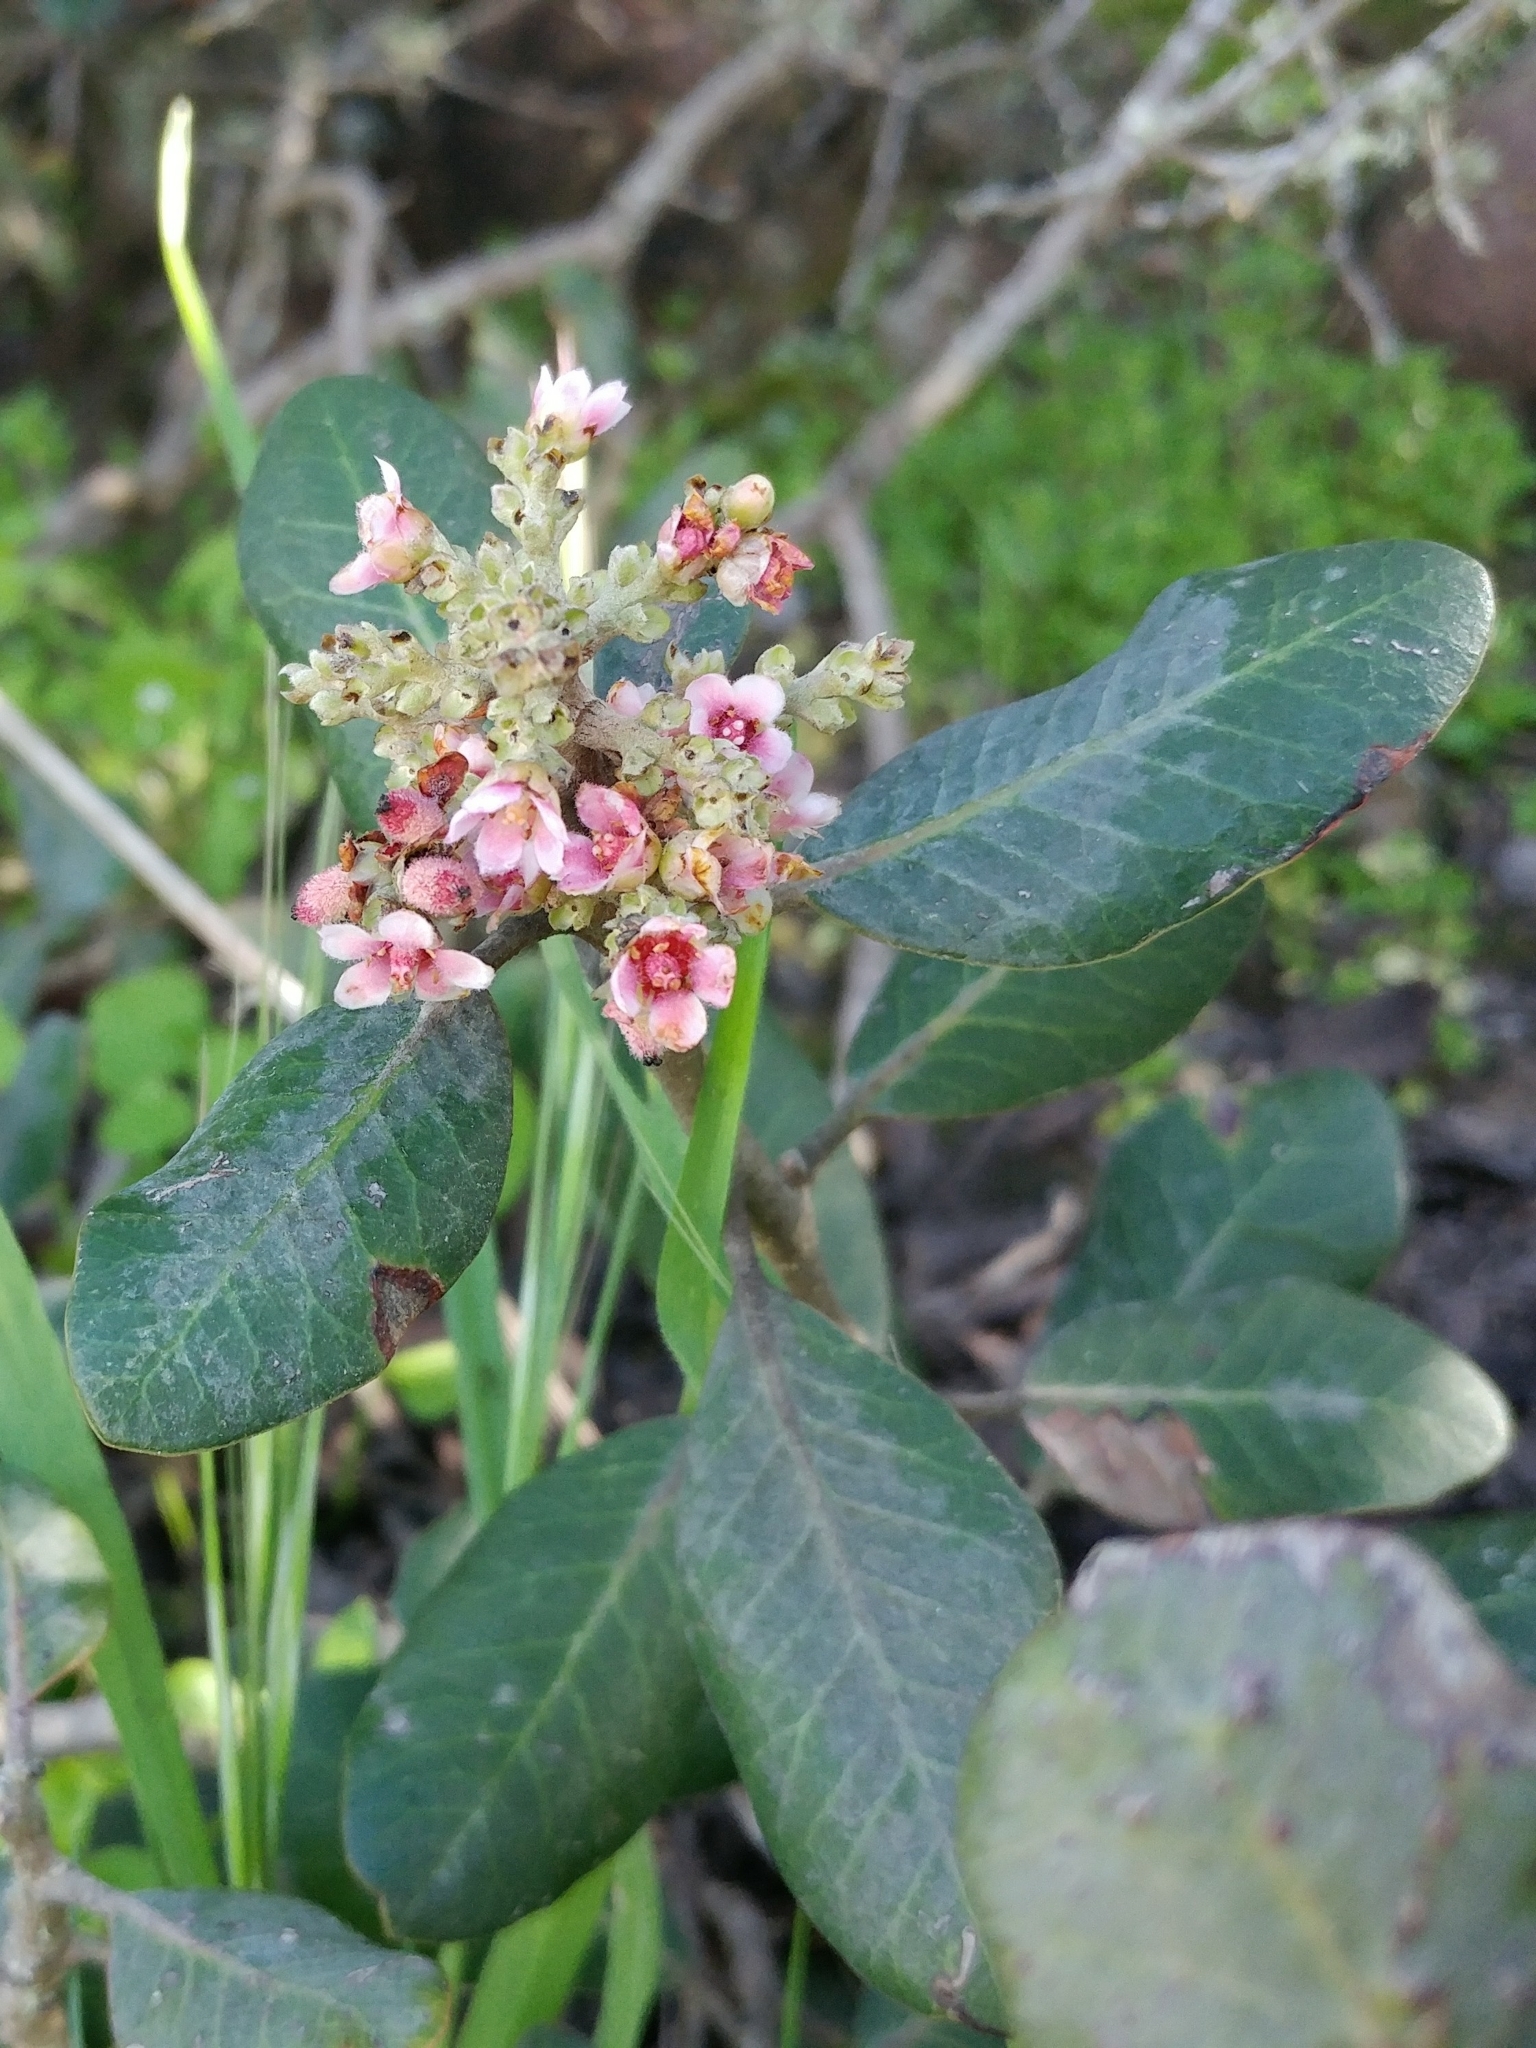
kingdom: Plantae
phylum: Tracheophyta
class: Magnoliopsida
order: Sapindales
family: Anacardiaceae
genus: Rhus
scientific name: Rhus integrifolia
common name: Lemonade sumac
